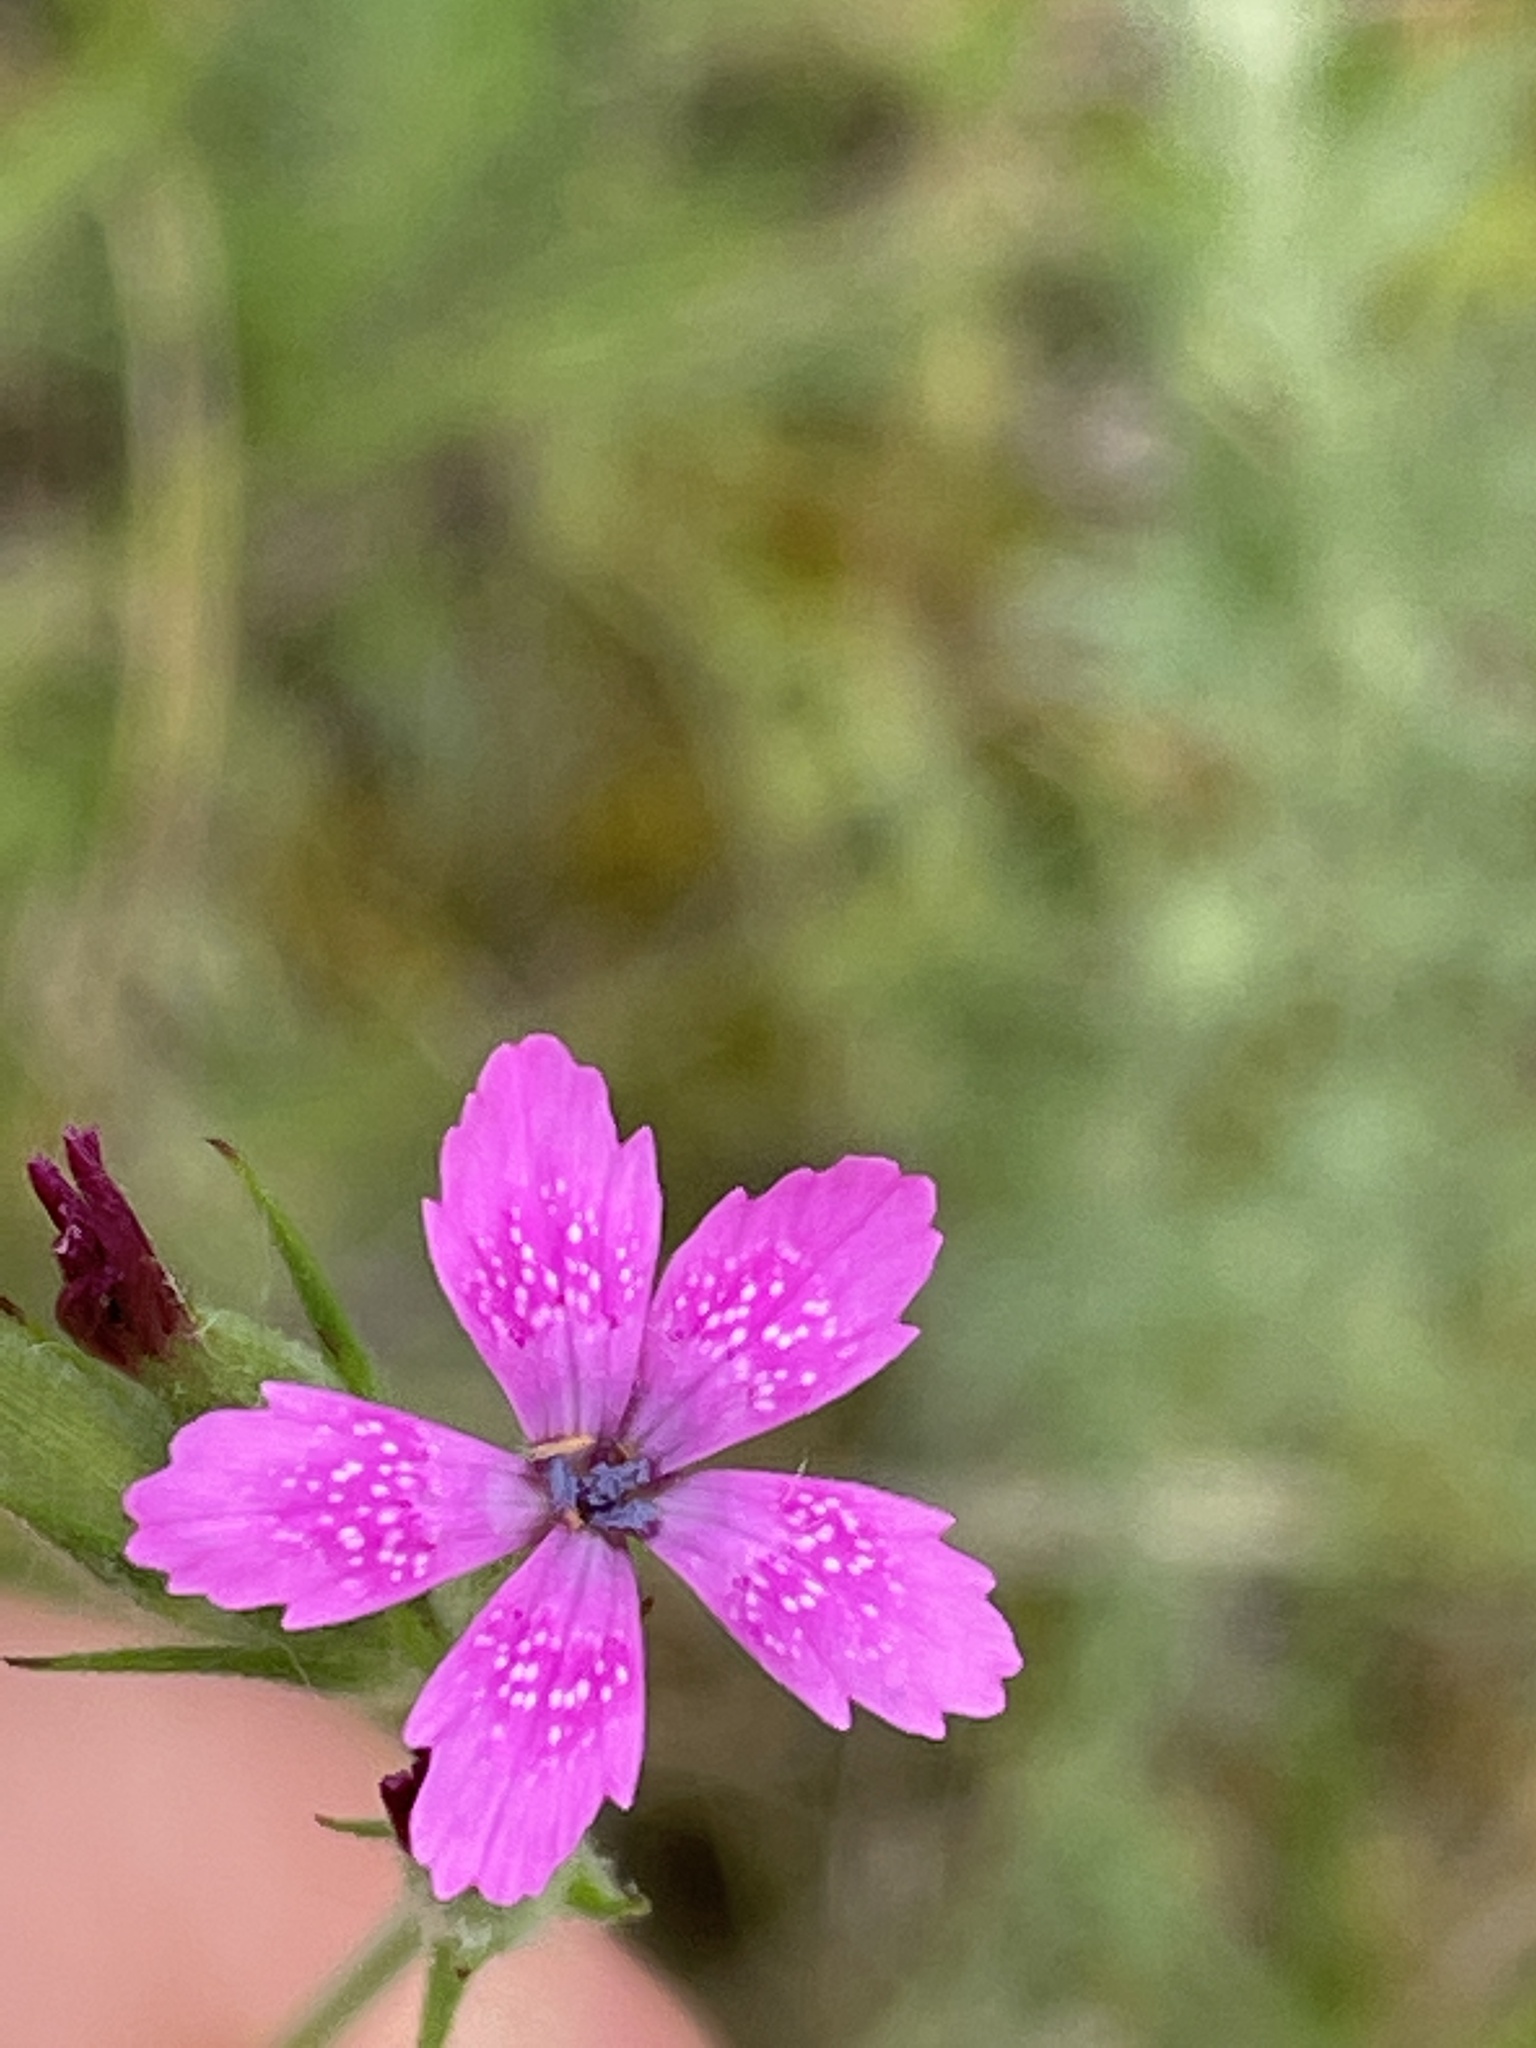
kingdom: Plantae
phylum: Tracheophyta
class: Magnoliopsida
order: Caryophyllales
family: Caryophyllaceae
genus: Dianthus
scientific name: Dianthus armeria
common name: Deptford pink
